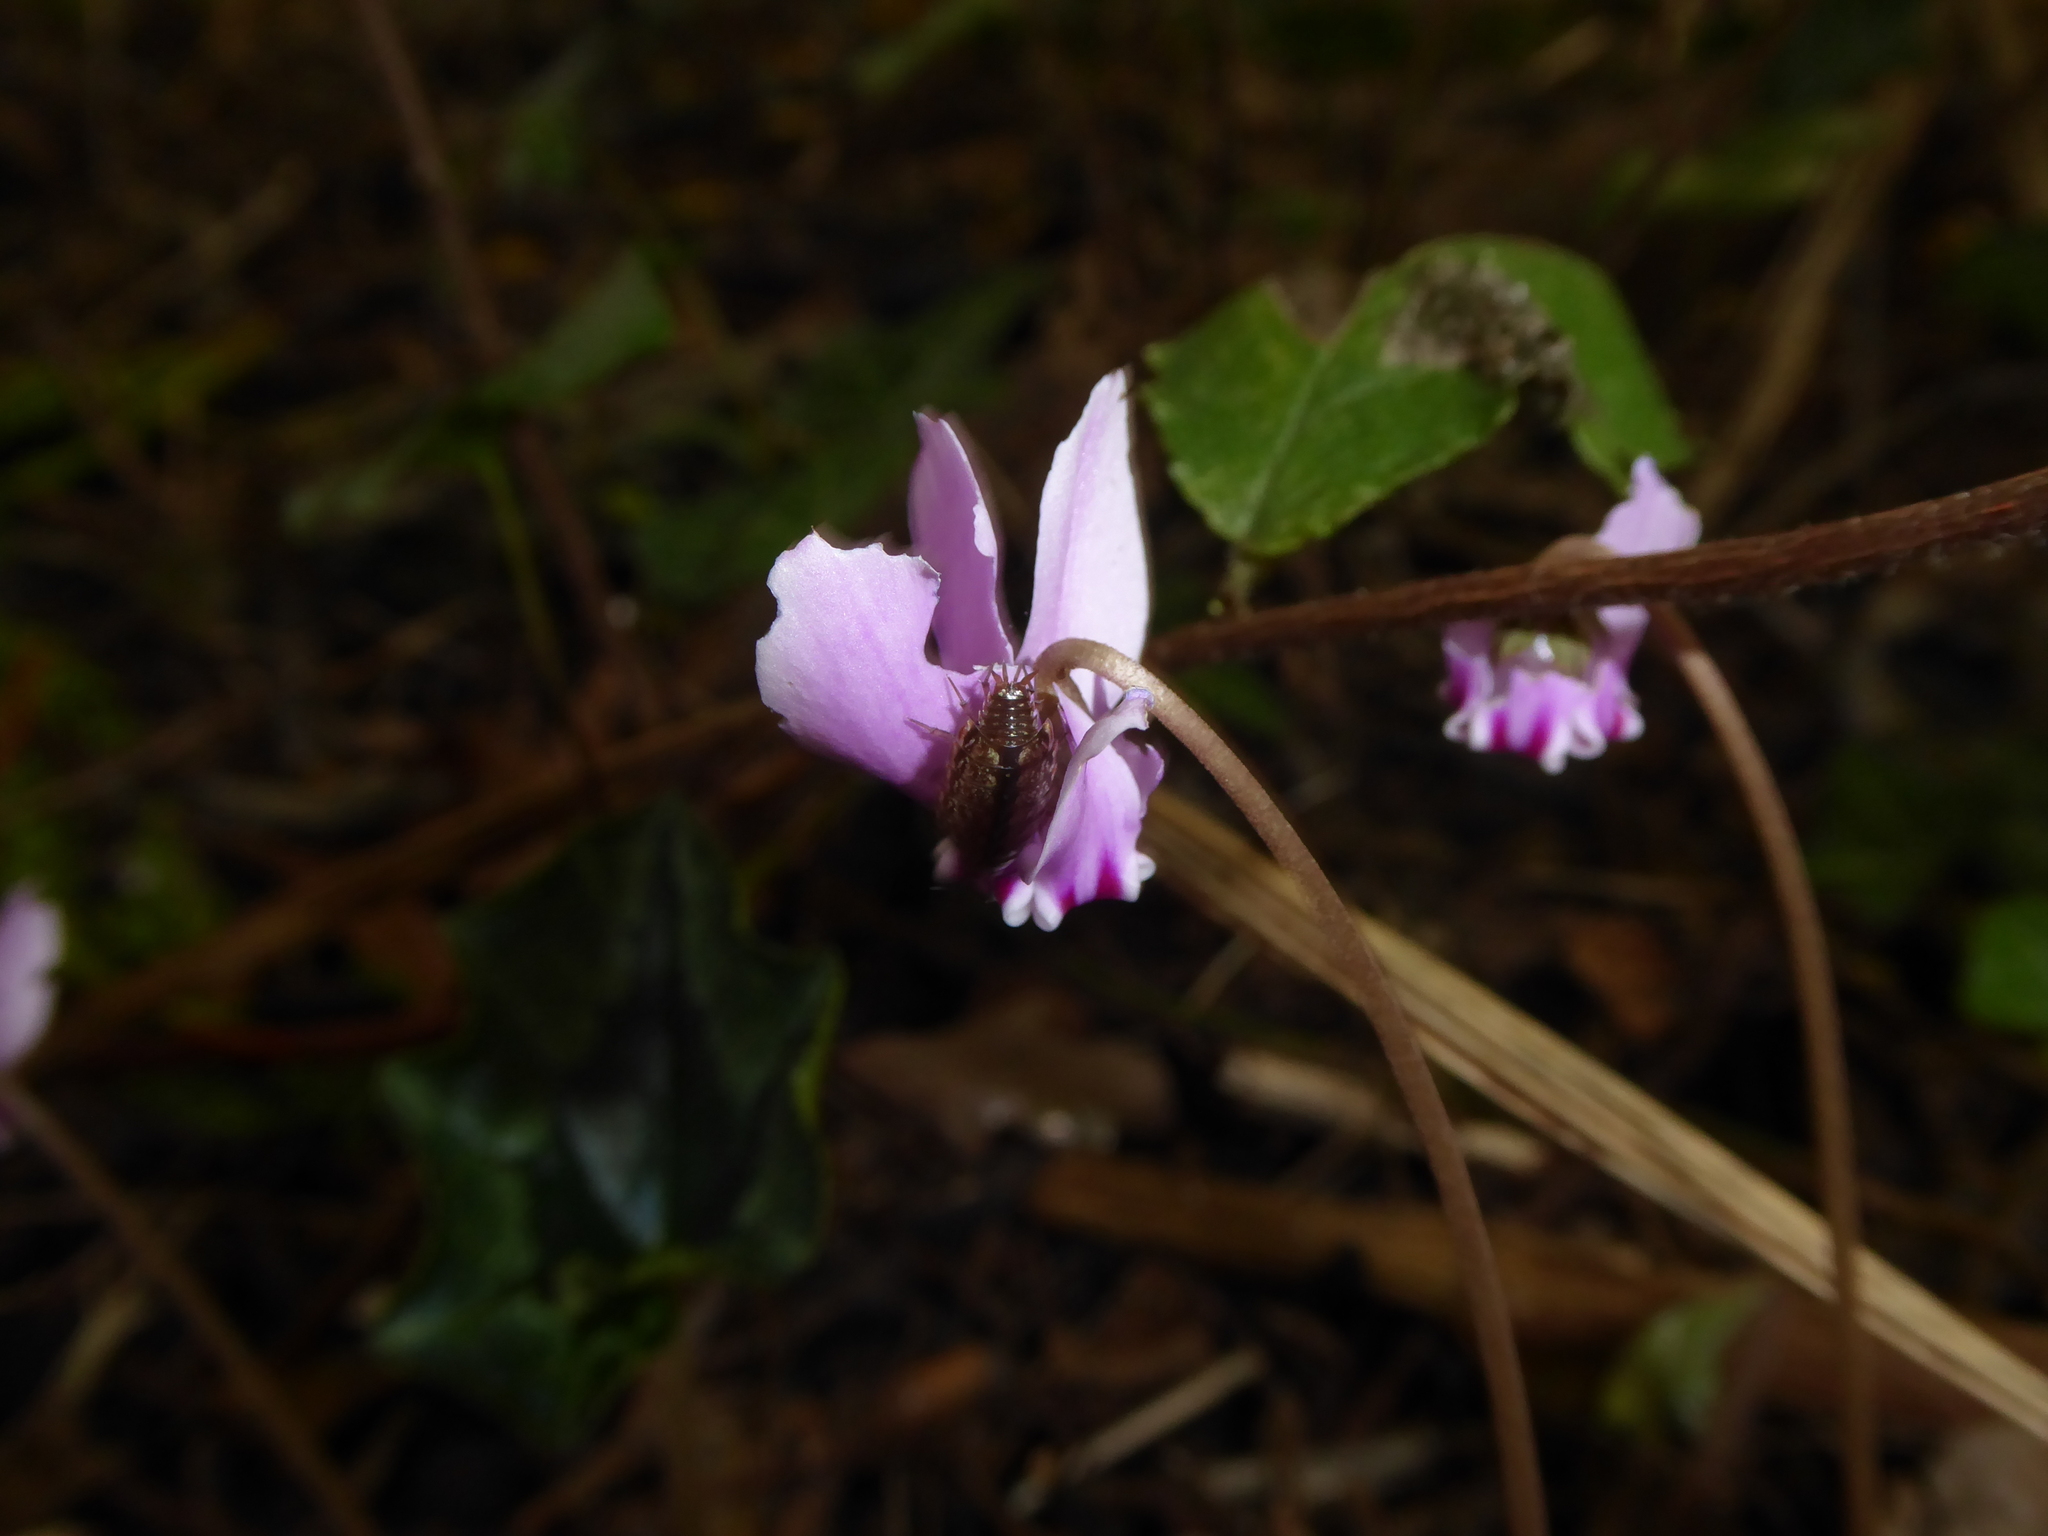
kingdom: Plantae
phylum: Tracheophyta
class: Magnoliopsida
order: Ericales
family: Primulaceae
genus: Cyclamen
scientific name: Cyclamen hederifolium
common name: Sowbread
